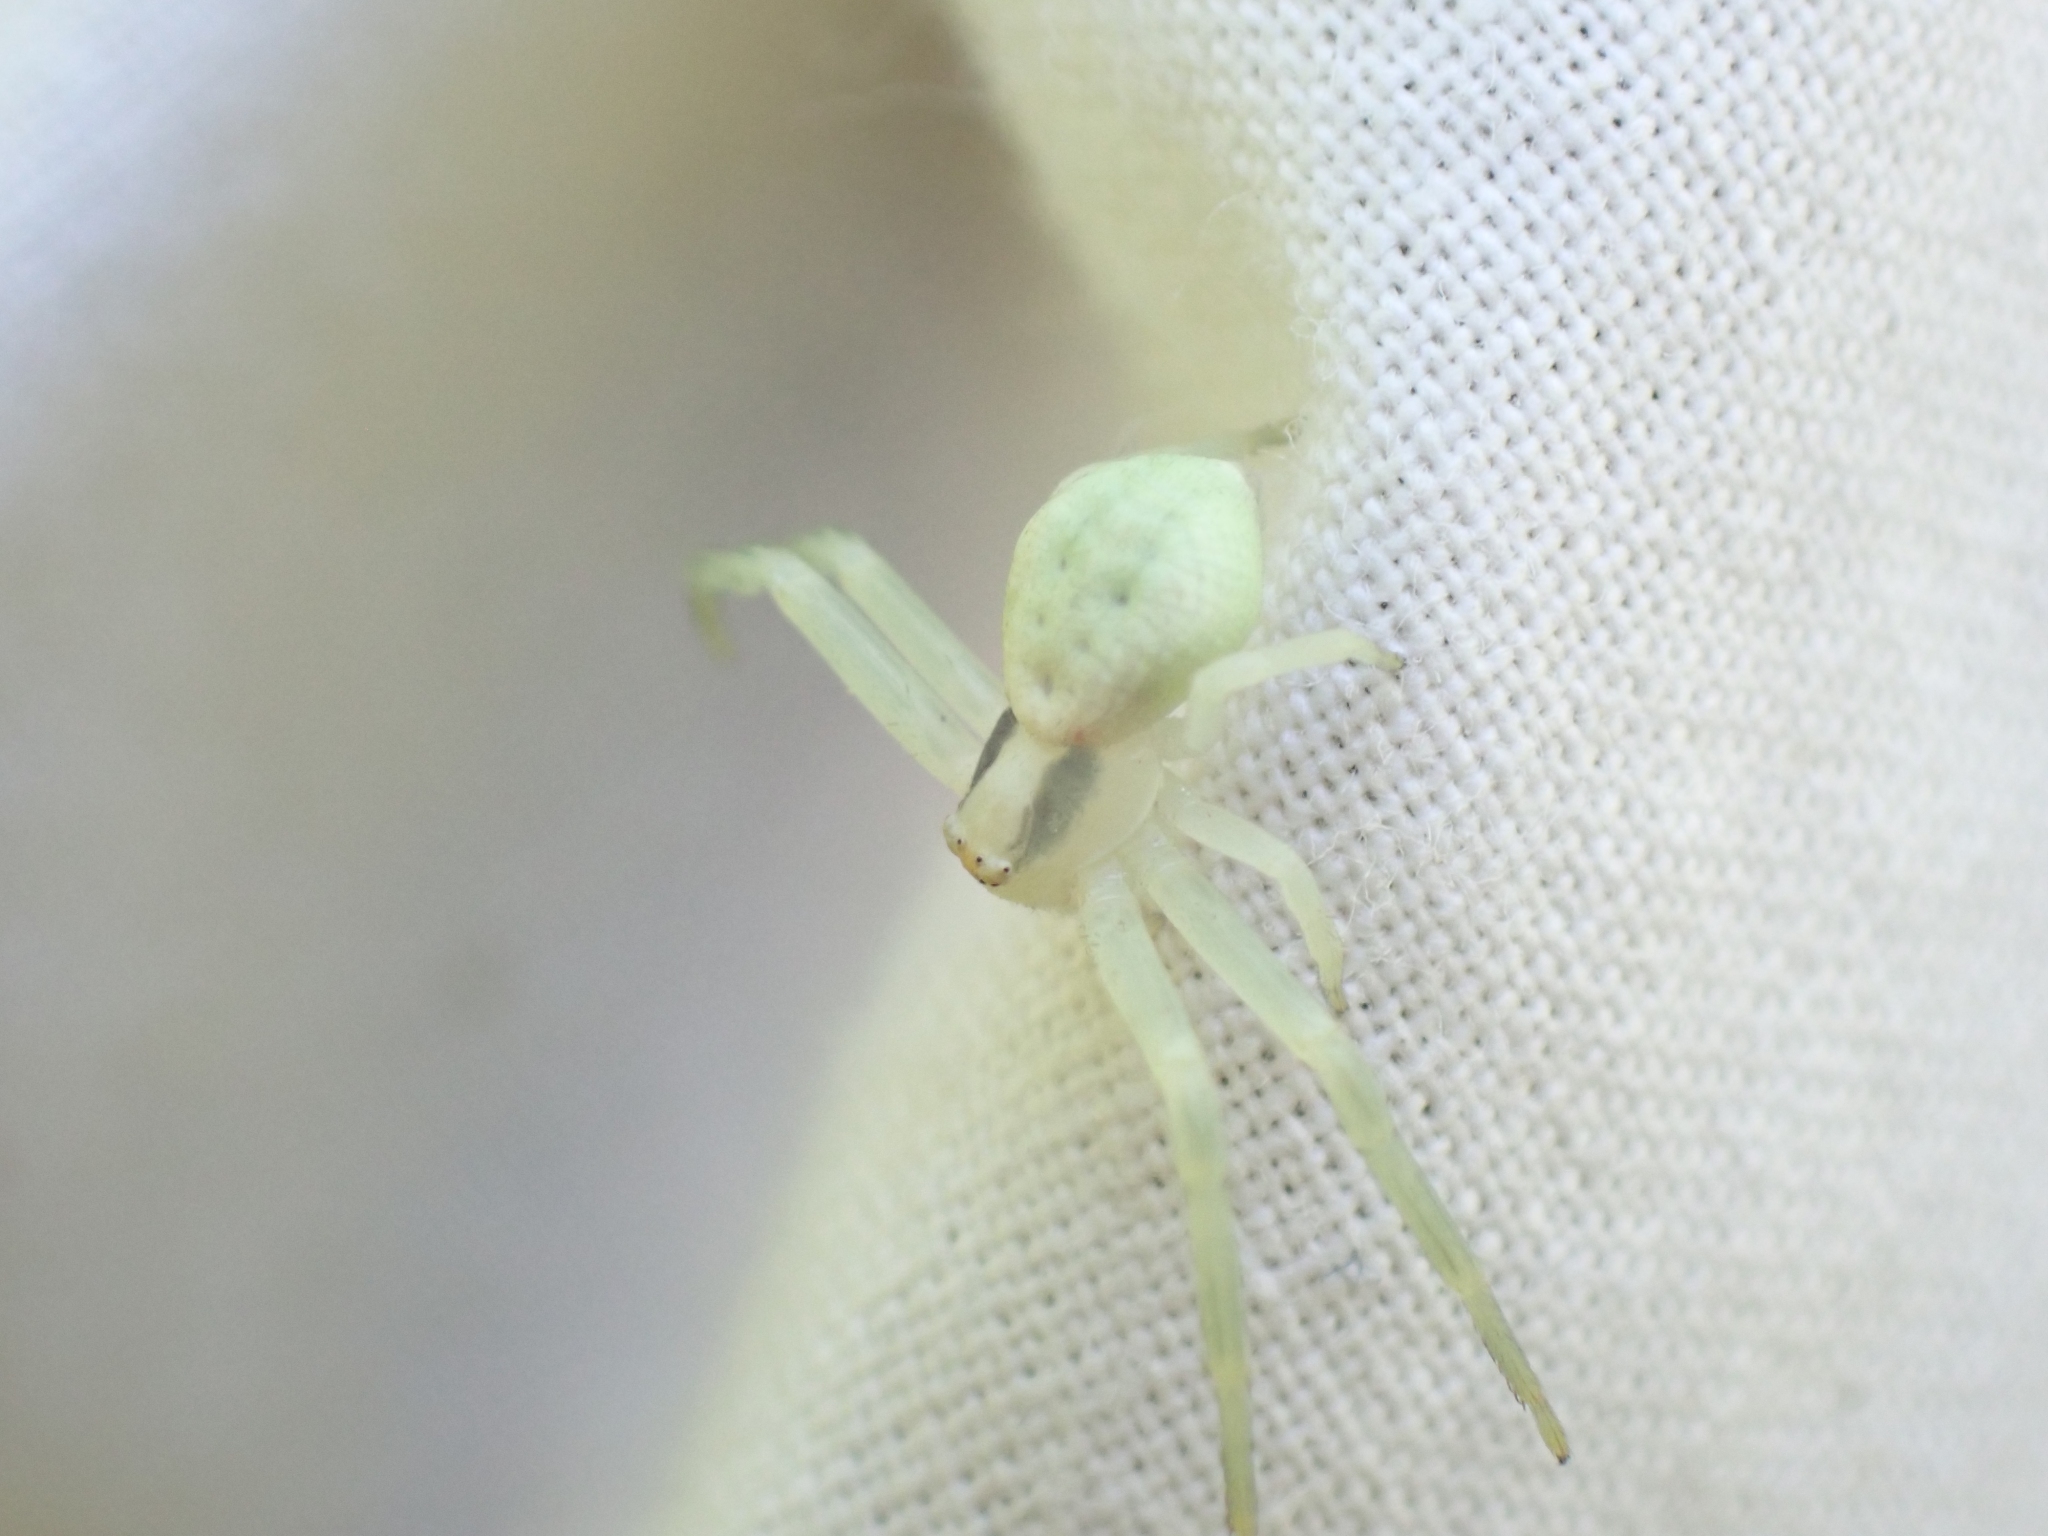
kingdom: Animalia
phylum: Arthropoda
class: Arachnida
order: Araneae
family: Thomisidae
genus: Misumena
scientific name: Misumena vatia
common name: Goldenrod crab spider
